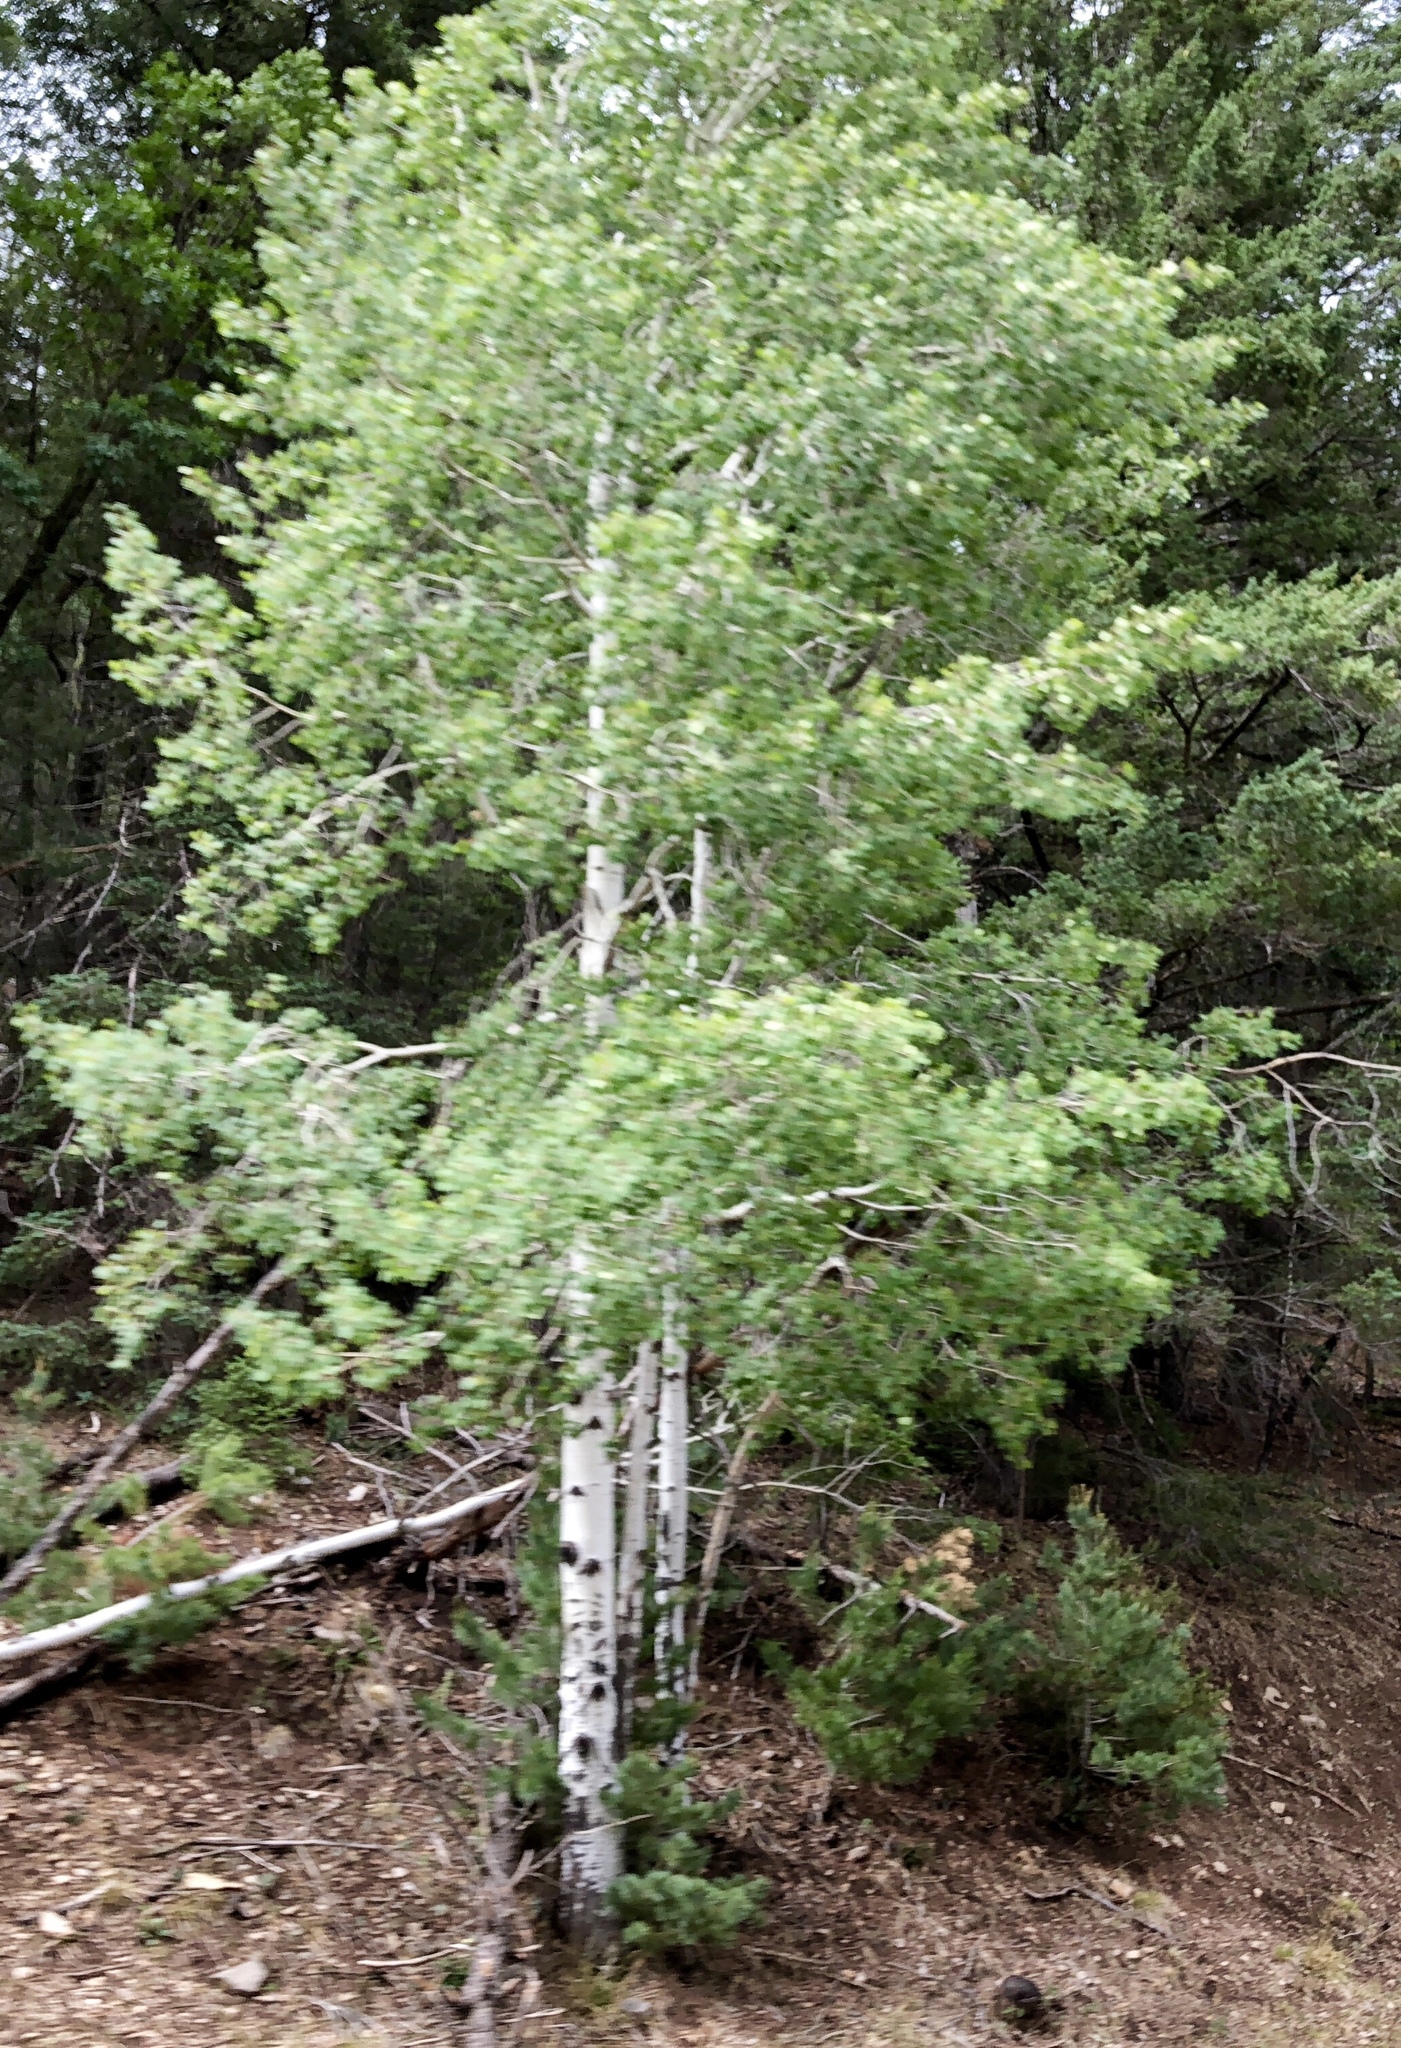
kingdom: Plantae
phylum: Tracheophyta
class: Magnoliopsida
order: Malpighiales
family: Salicaceae
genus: Populus
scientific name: Populus tremuloides
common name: Quaking aspen
